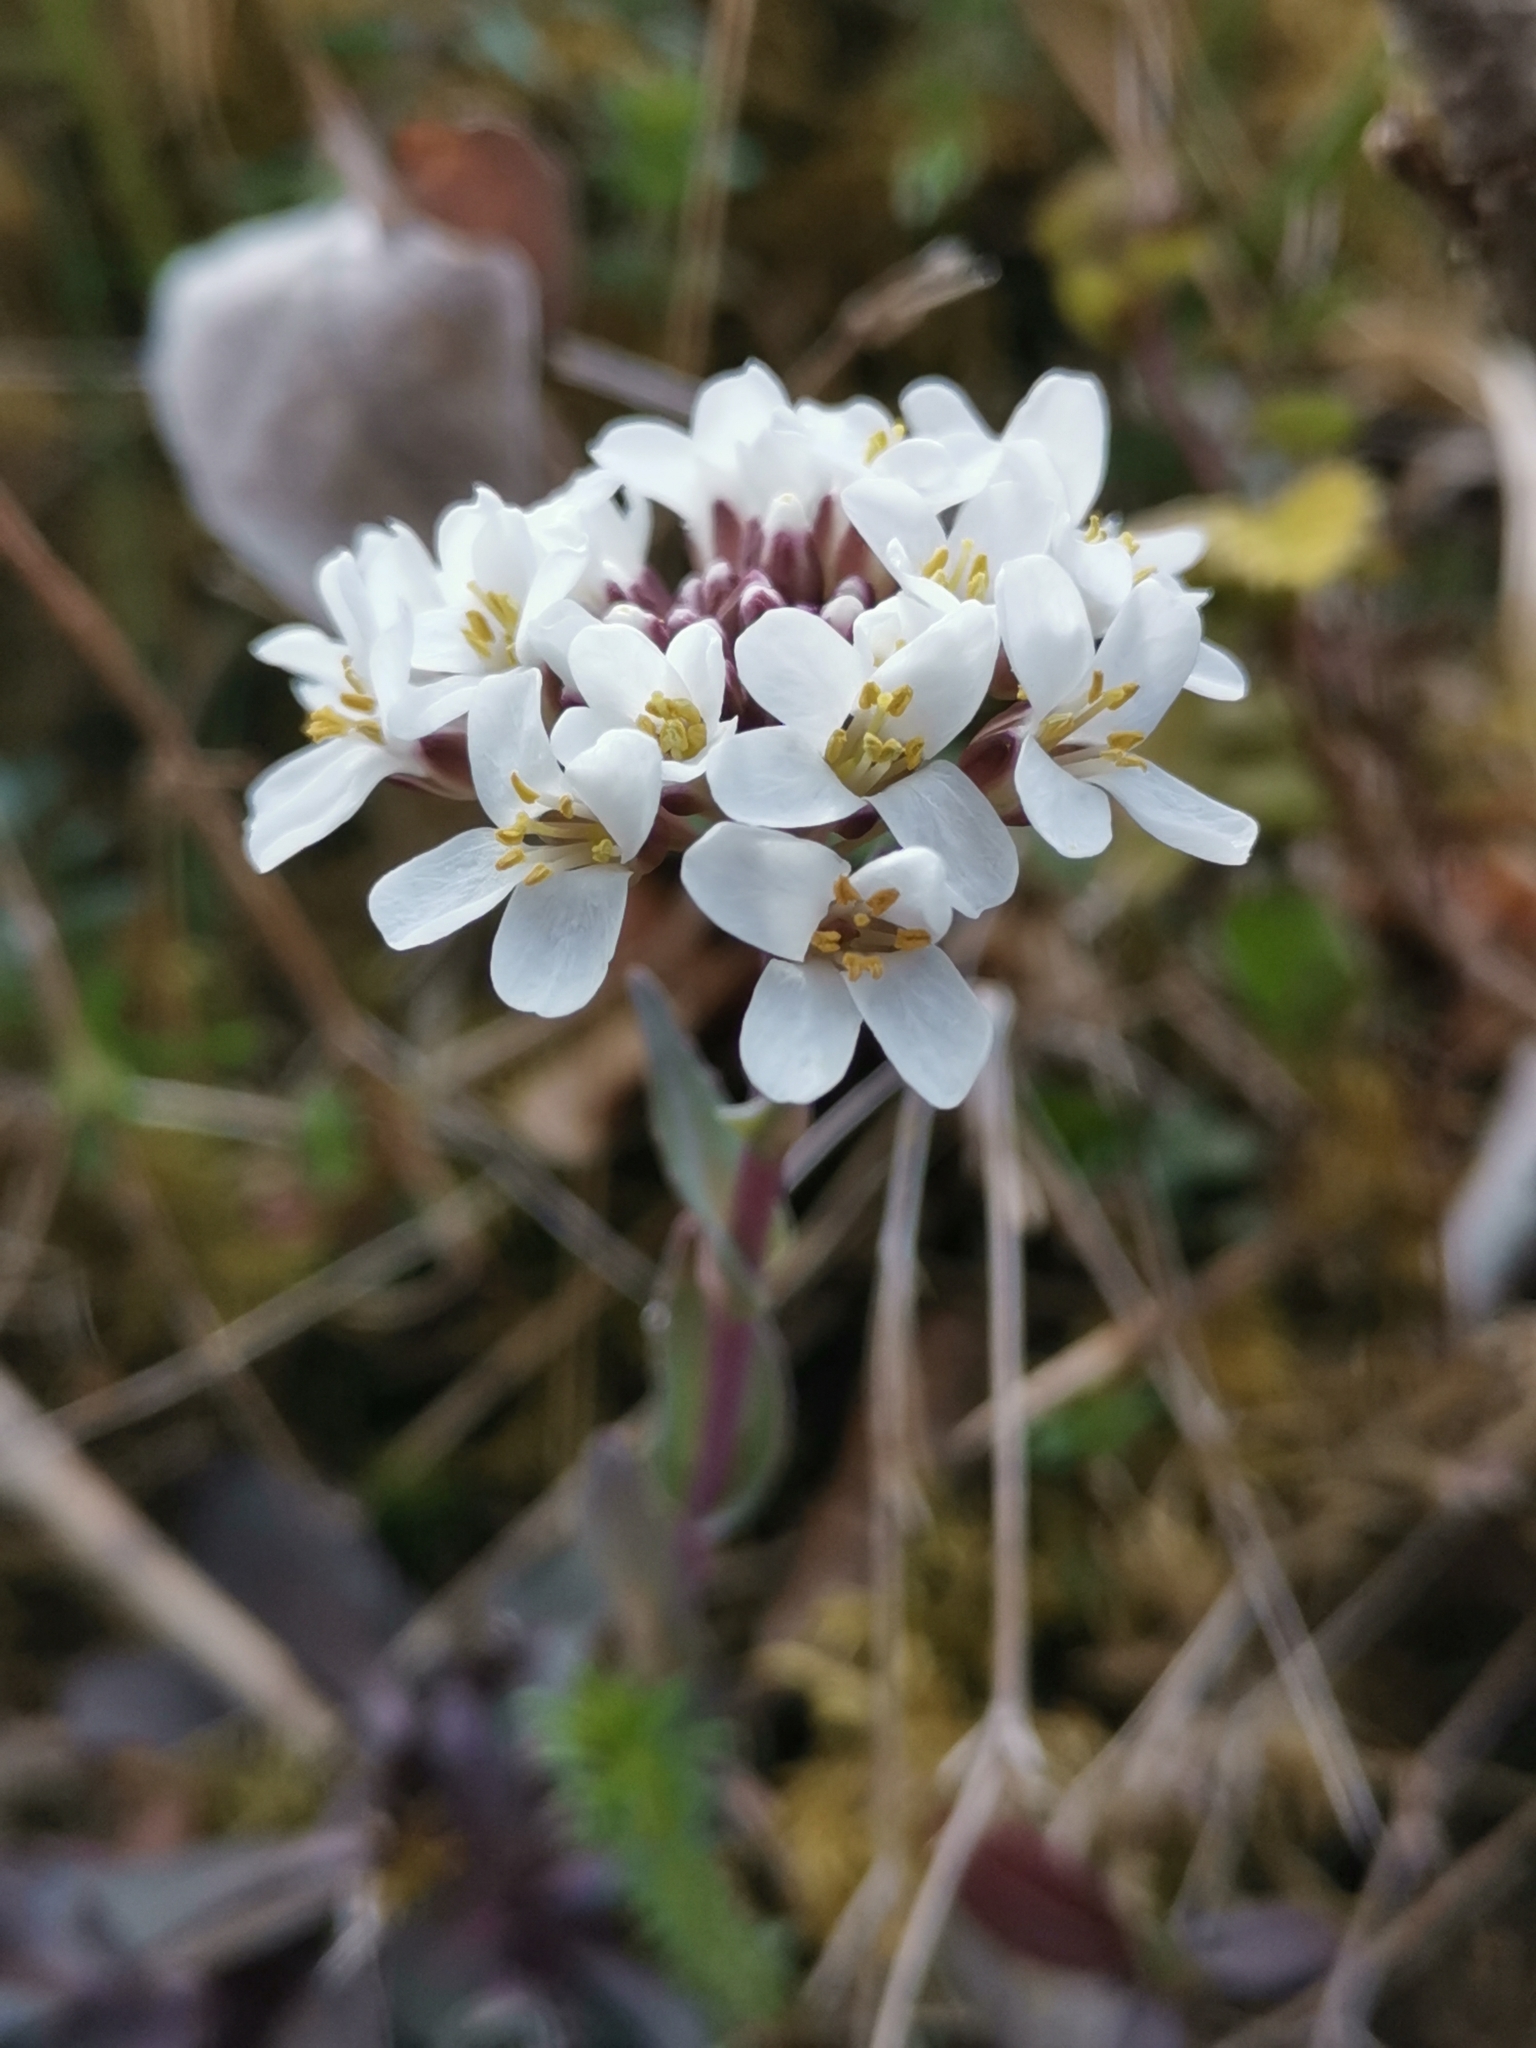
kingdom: Plantae
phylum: Tracheophyta
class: Magnoliopsida
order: Brassicales
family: Brassicaceae
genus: Noccaea
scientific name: Noccaea praecox
